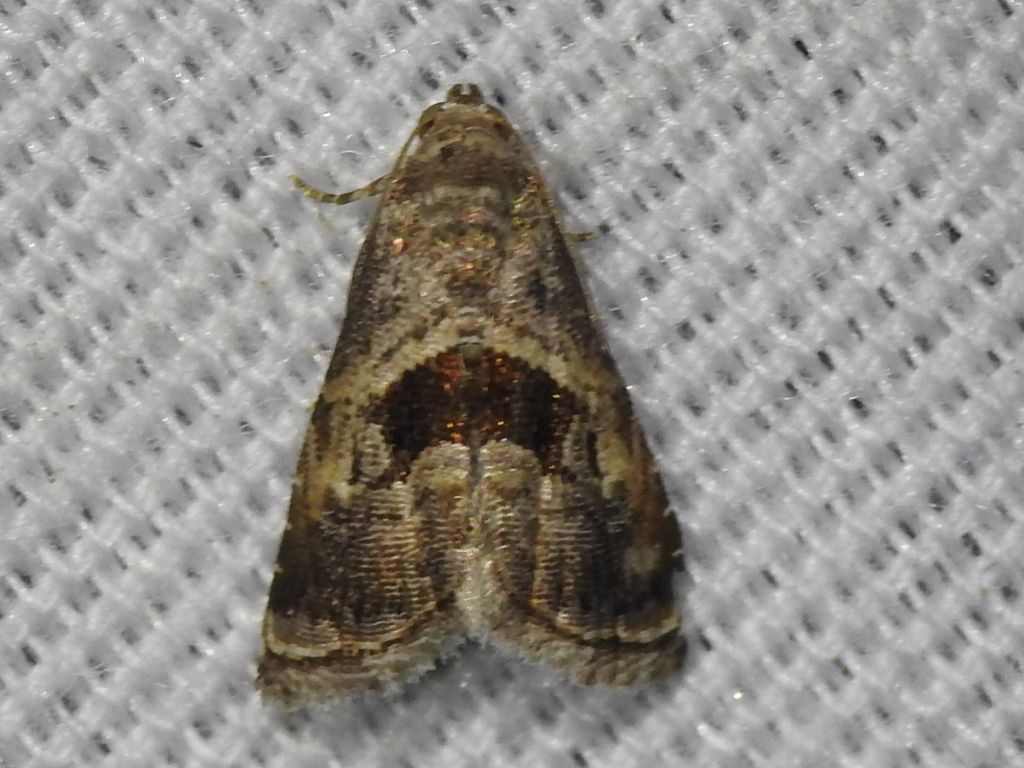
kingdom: Animalia
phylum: Arthropoda
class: Insecta
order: Lepidoptera
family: Noctuidae
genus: Tripudia
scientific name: Tripudia quadrifera
